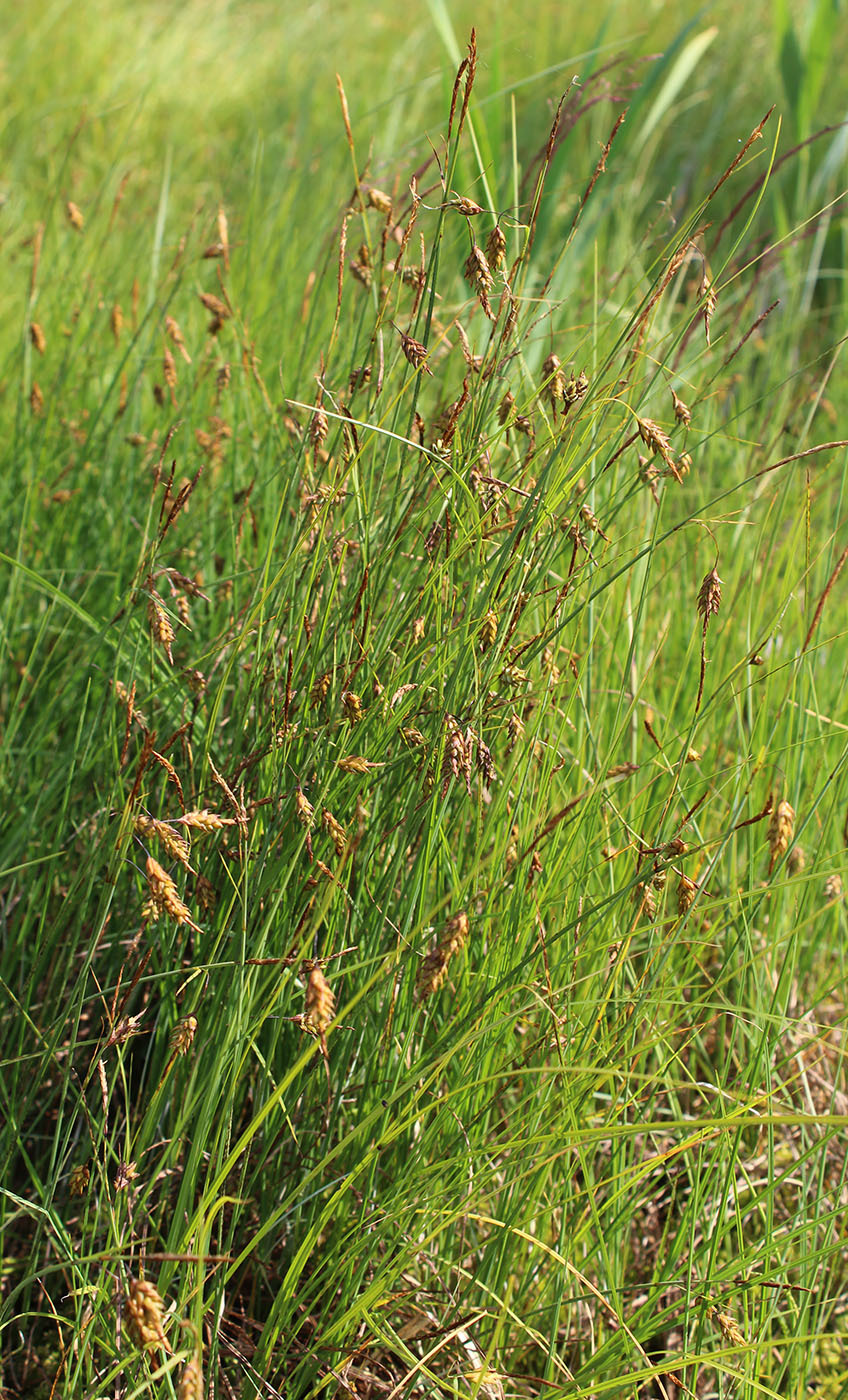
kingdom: Plantae
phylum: Tracheophyta
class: Liliopsida
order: Poales
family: Cyperaceae
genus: Carex
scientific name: Carex limosa
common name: Bog sedge
